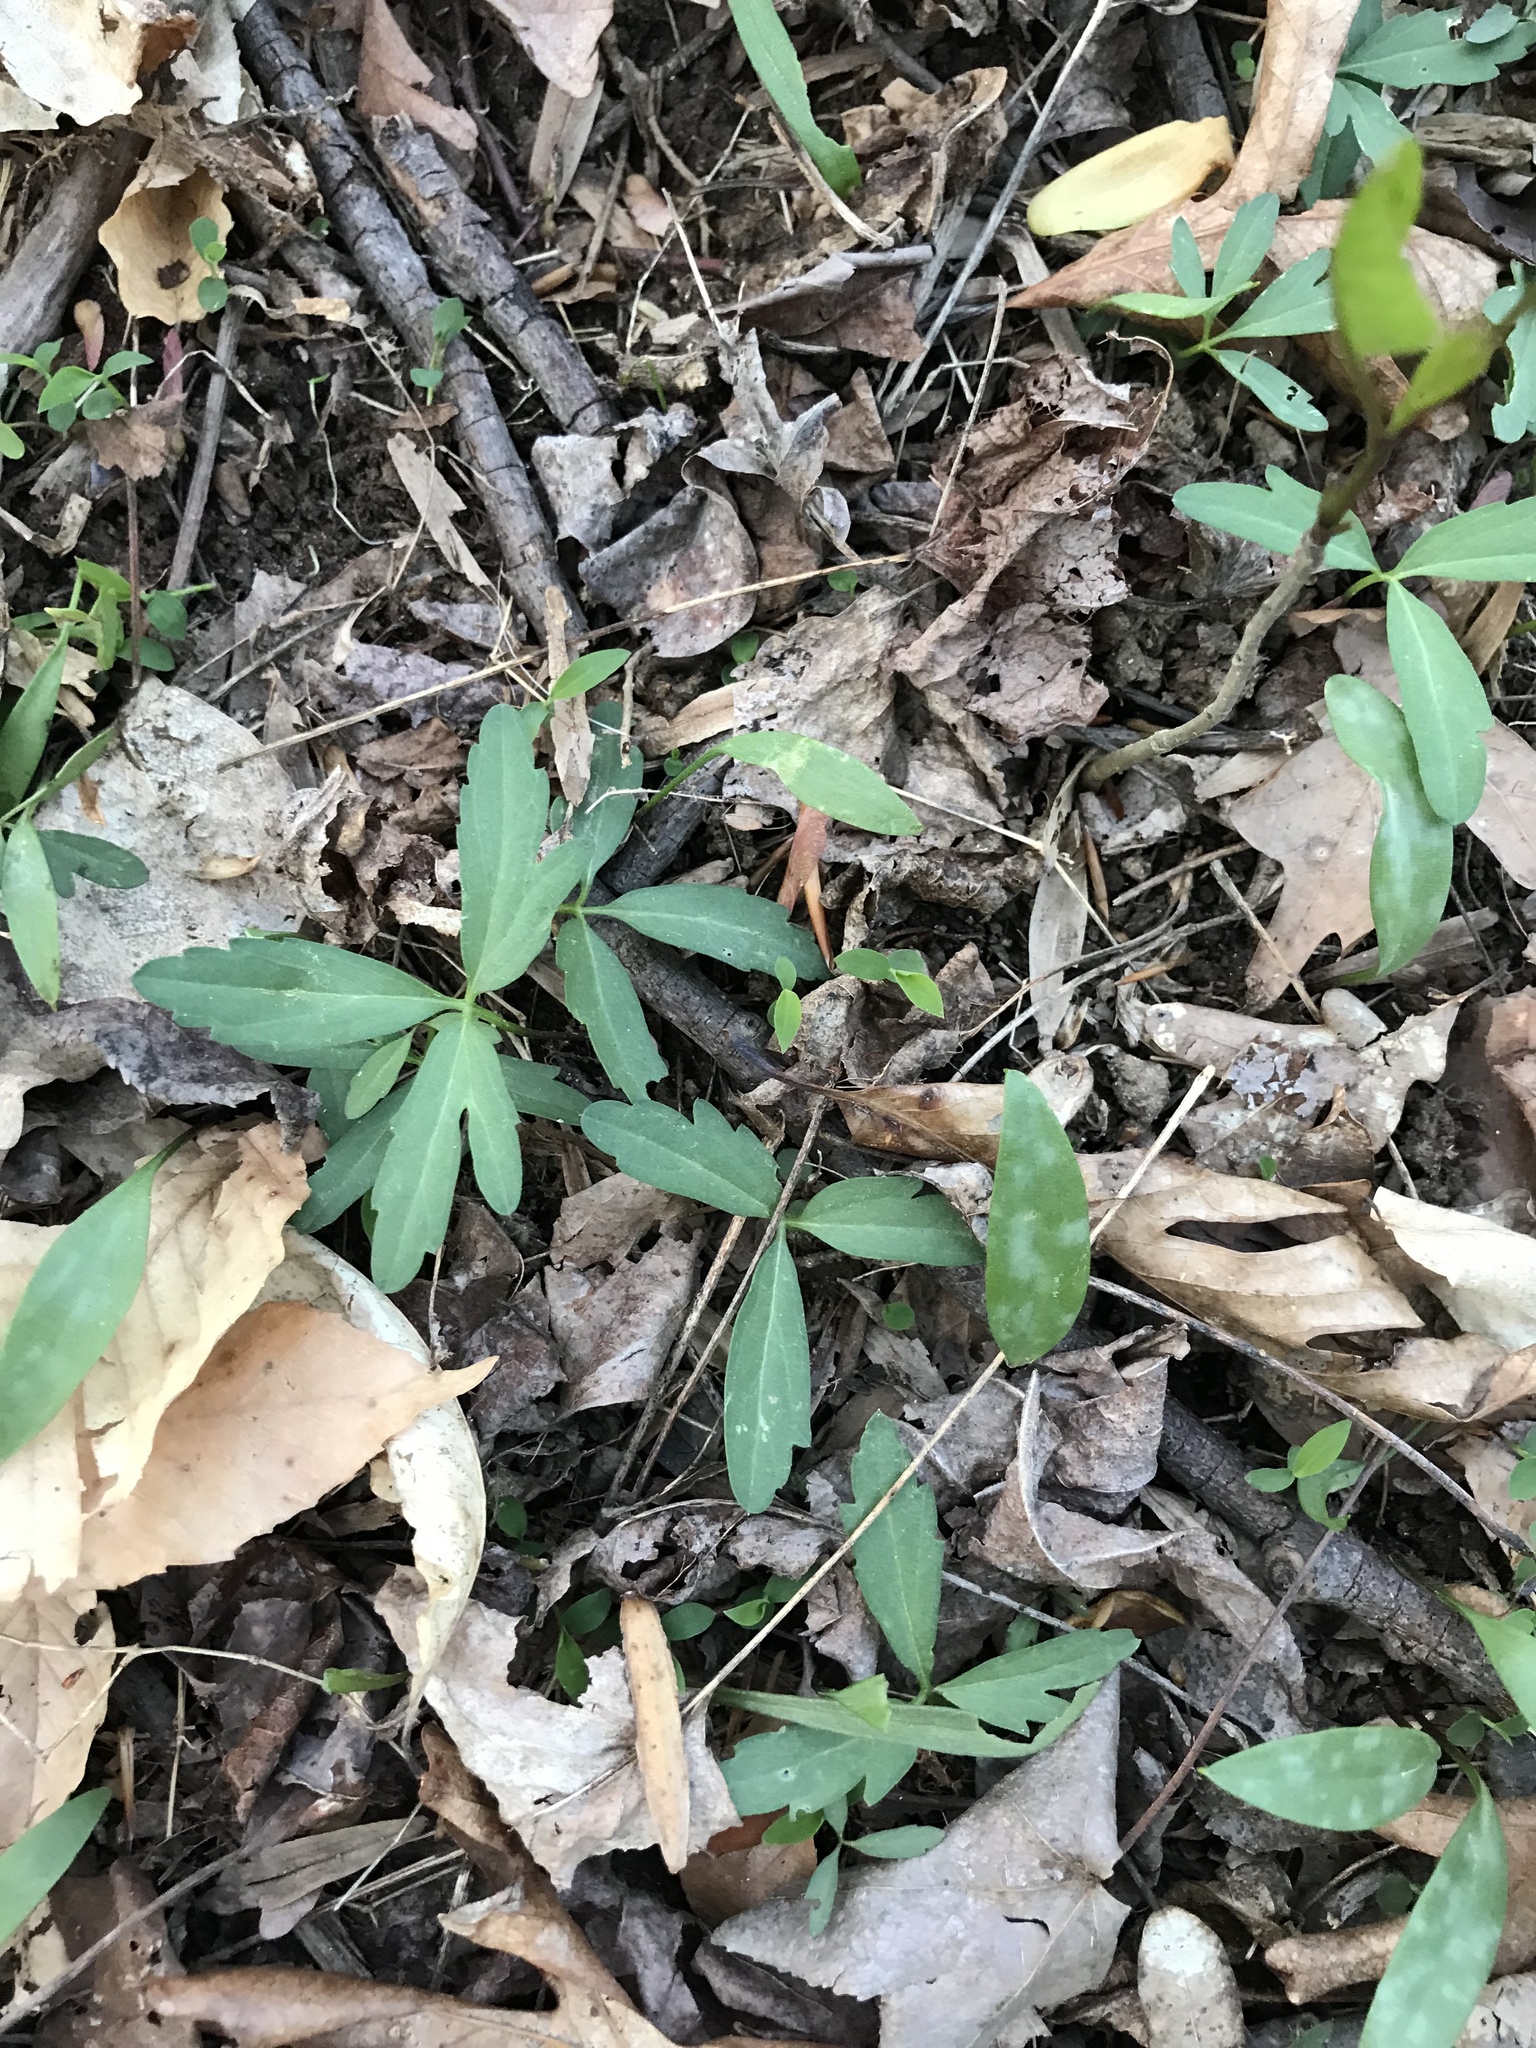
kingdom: Plantae
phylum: Tracheophyta
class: Magnoliopsida
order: Brassicales
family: Brassicaceae
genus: Cardamine
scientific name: Cardamine concatenata
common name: Cut-leaf toothcup
